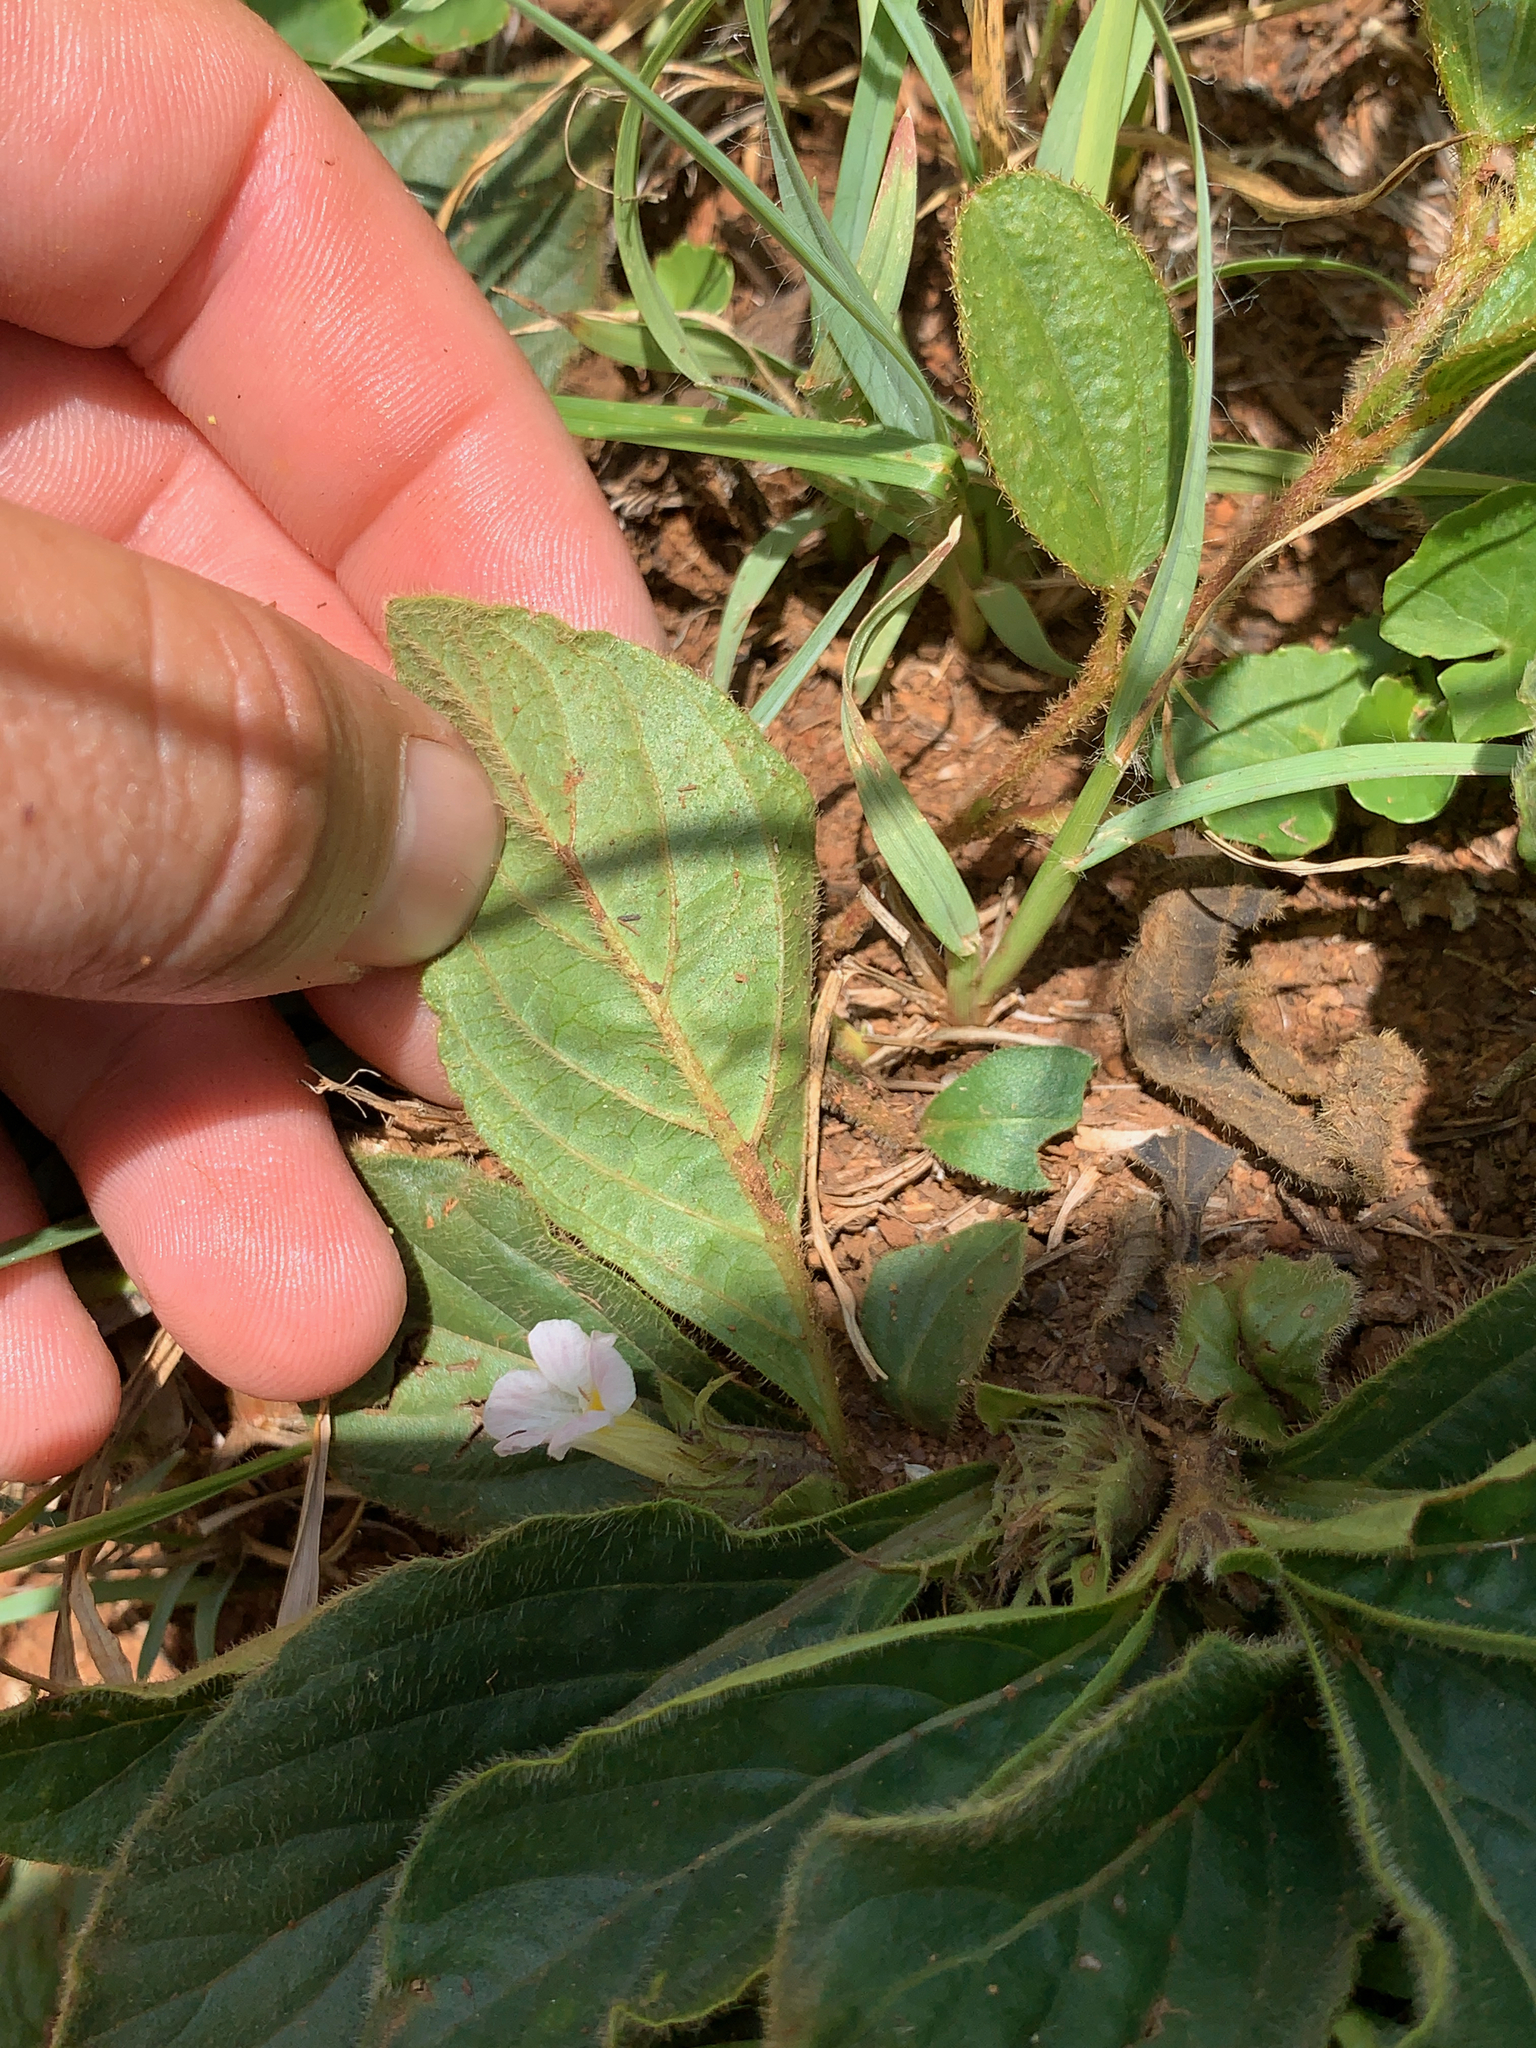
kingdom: Plantae
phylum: Tracheophyta
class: Magnoliopsida
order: Lamiales
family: Acanthaceae
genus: Crabbea
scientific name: Crabbea acaulis
